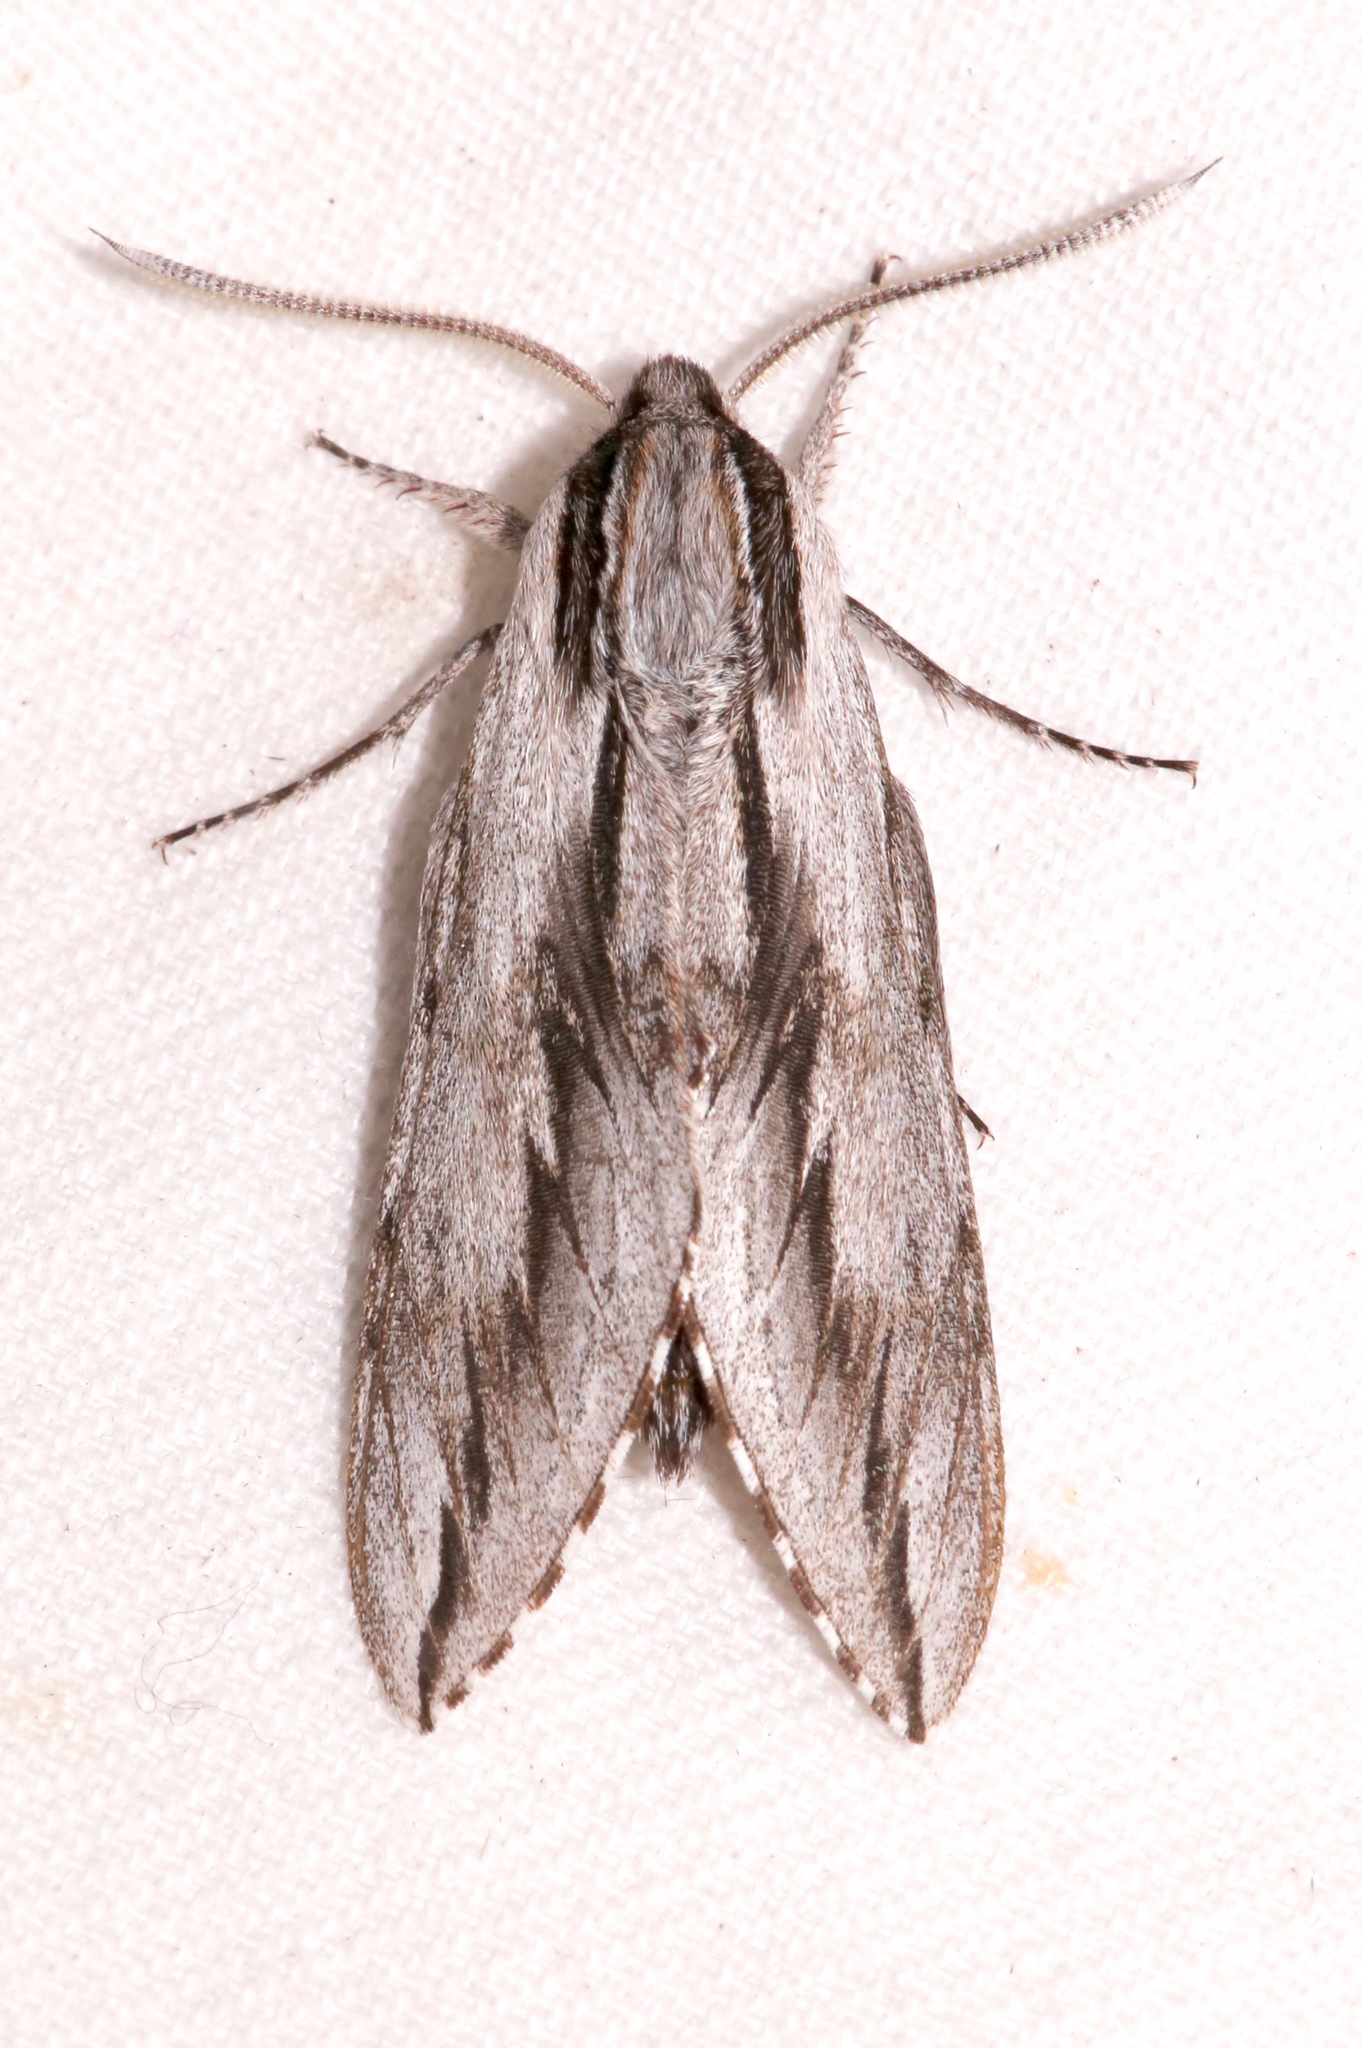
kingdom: Animalia
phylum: Arthropoda
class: Insecta
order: Lepidoptera
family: Sphingidae
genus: Sphinx
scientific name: Sphinx dollii
